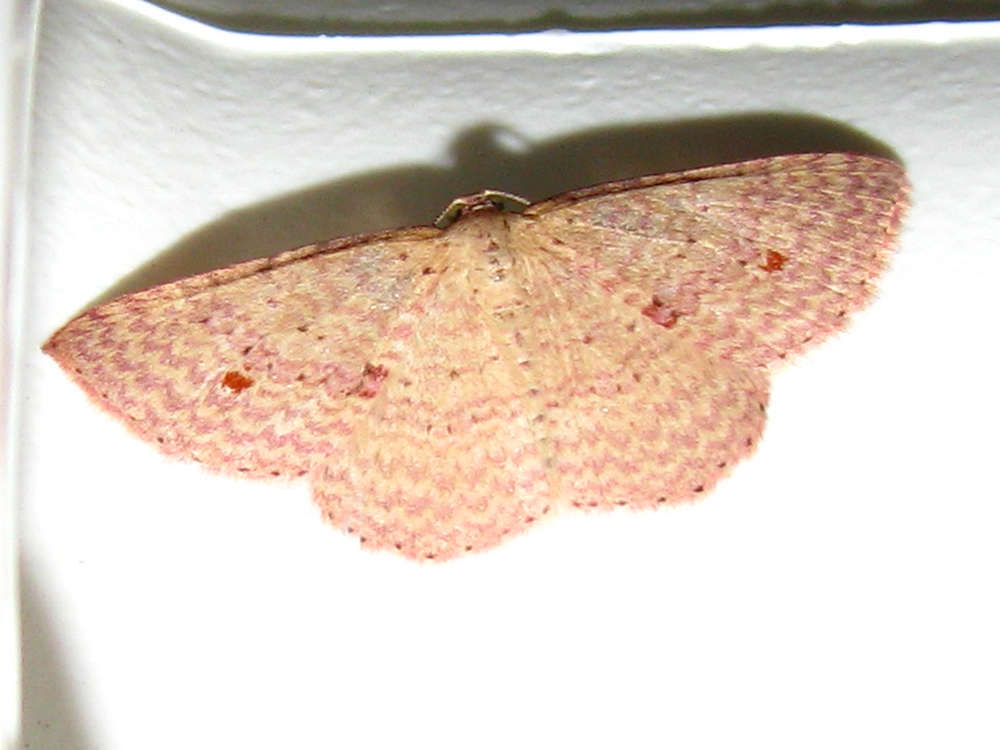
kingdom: Animalia
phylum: Arthropoda
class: Insecta
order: Lepidoptera
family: Geometridae
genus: Epicyme
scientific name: Epicyme rubropunctaria
